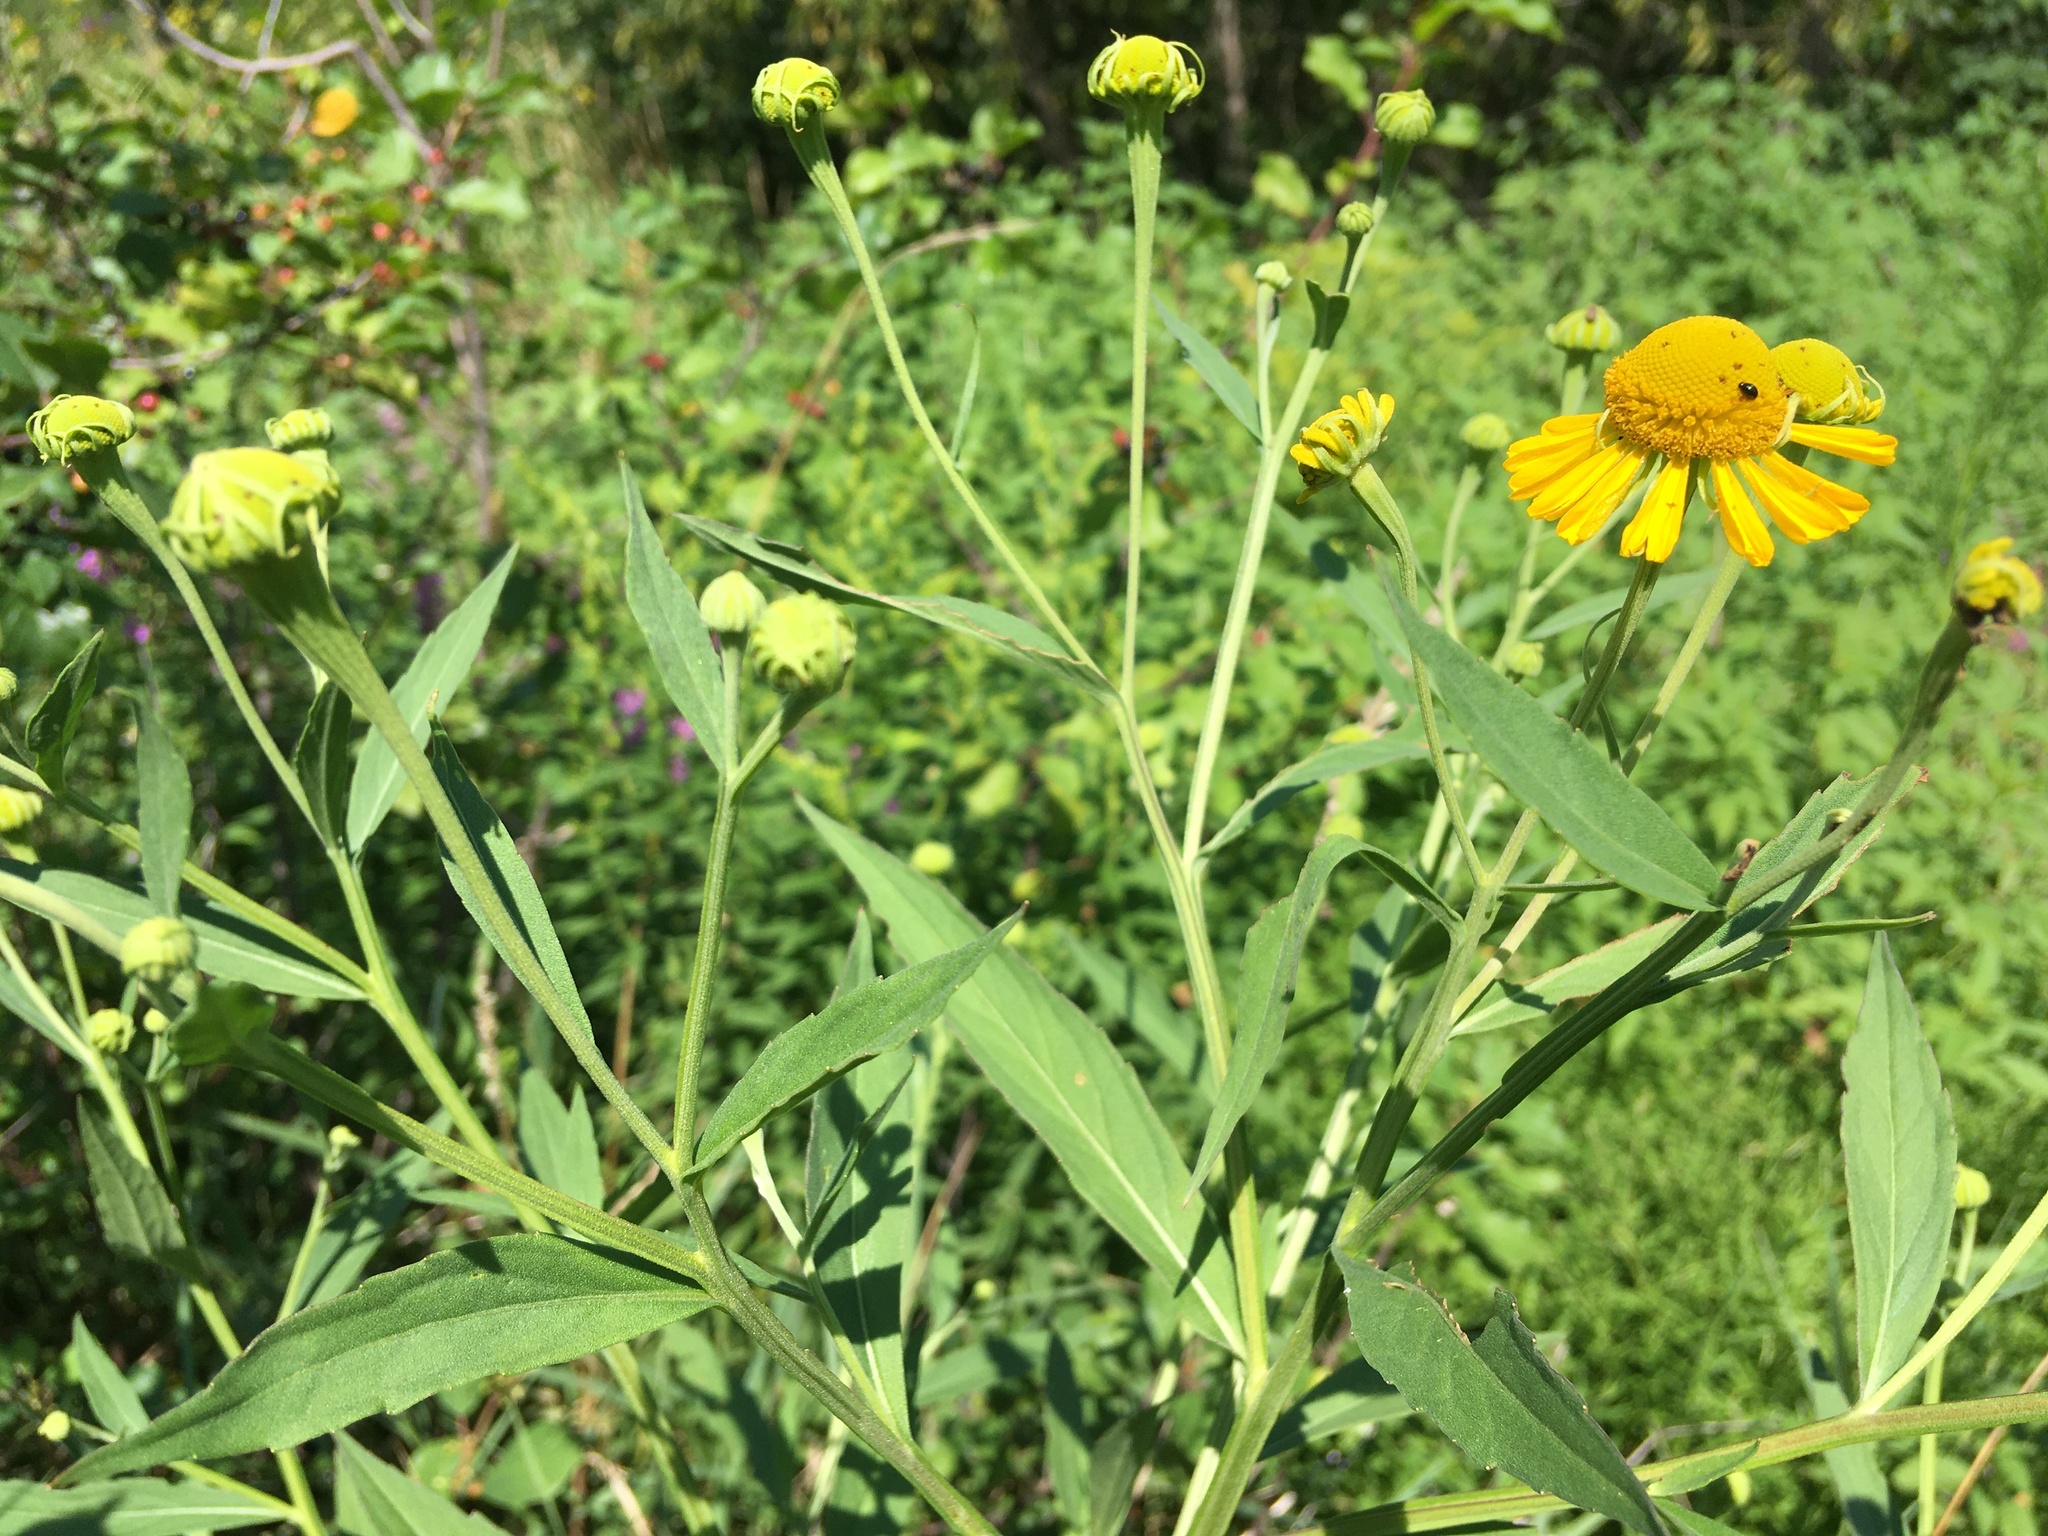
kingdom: Plantae
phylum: Tracheophyta
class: Magnoliopsida
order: Asterales
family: Asteraceae
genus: Helenium
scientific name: Helenium autumnale
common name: Sneezeweed
